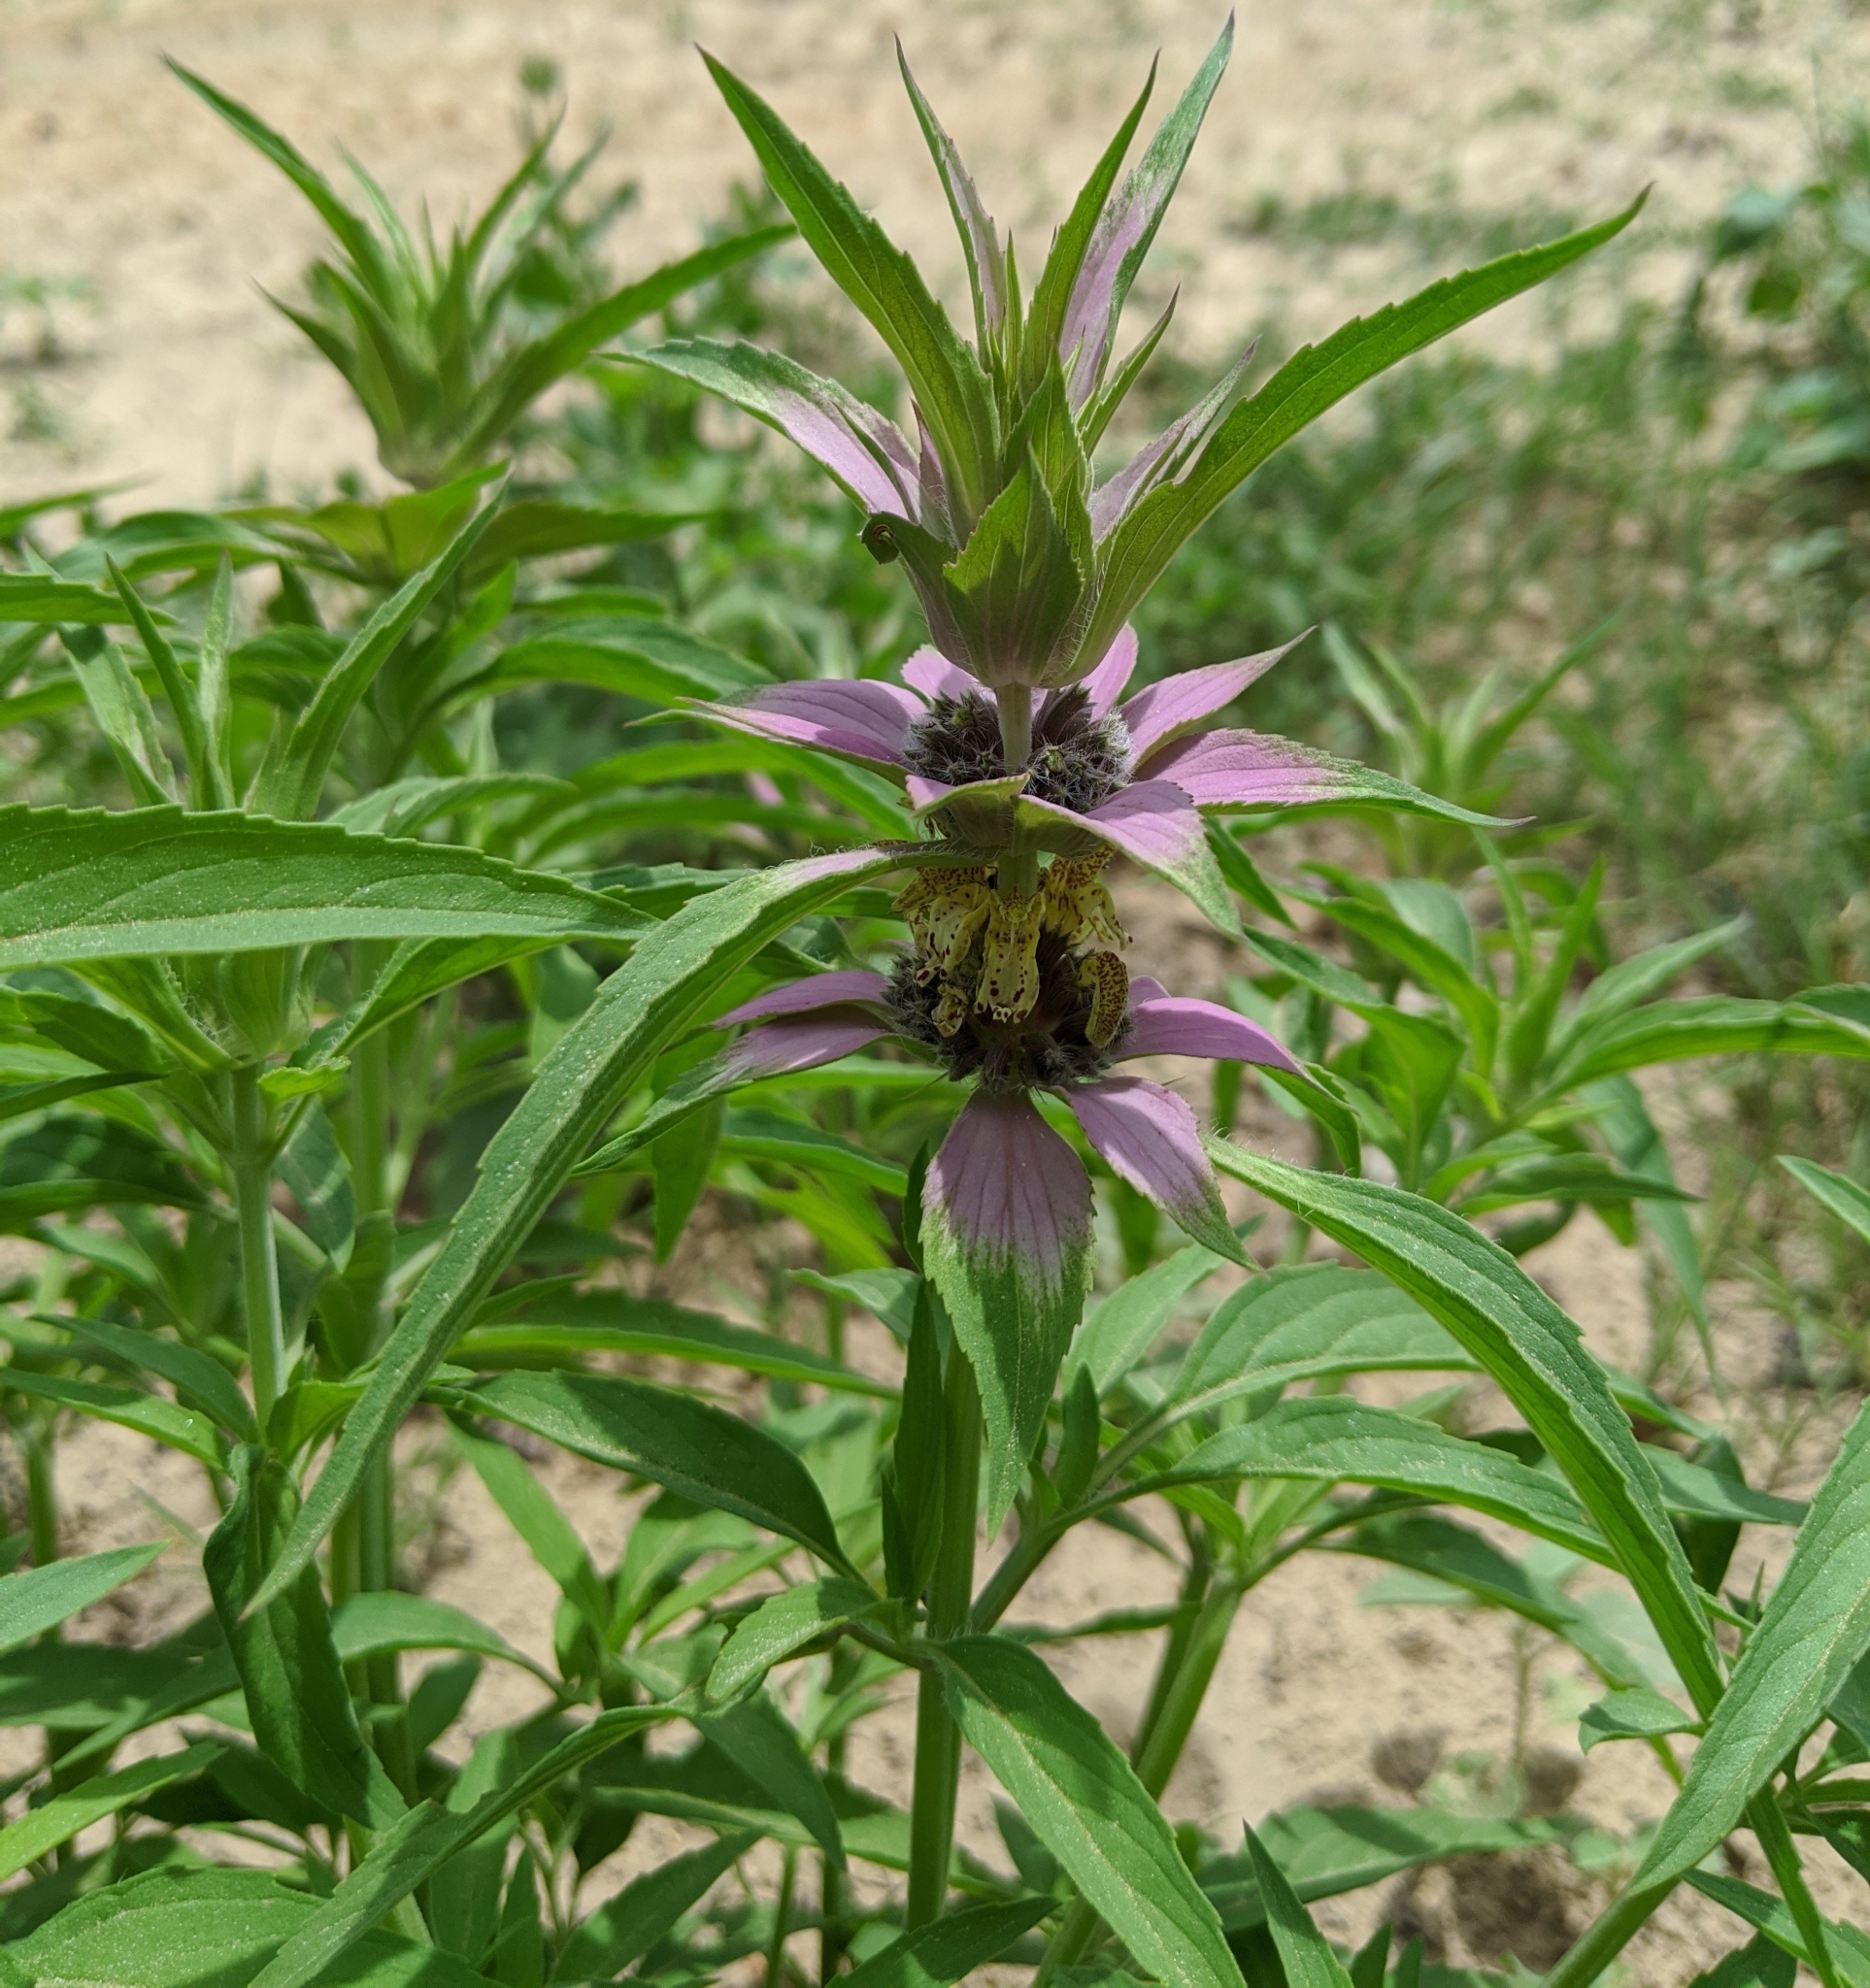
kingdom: Plantae
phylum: Tracheophyta
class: Magnoliopsida
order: Lamiales
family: Lamiaceae
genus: Monarda
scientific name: Monarda punctata
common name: Dotted monarda
